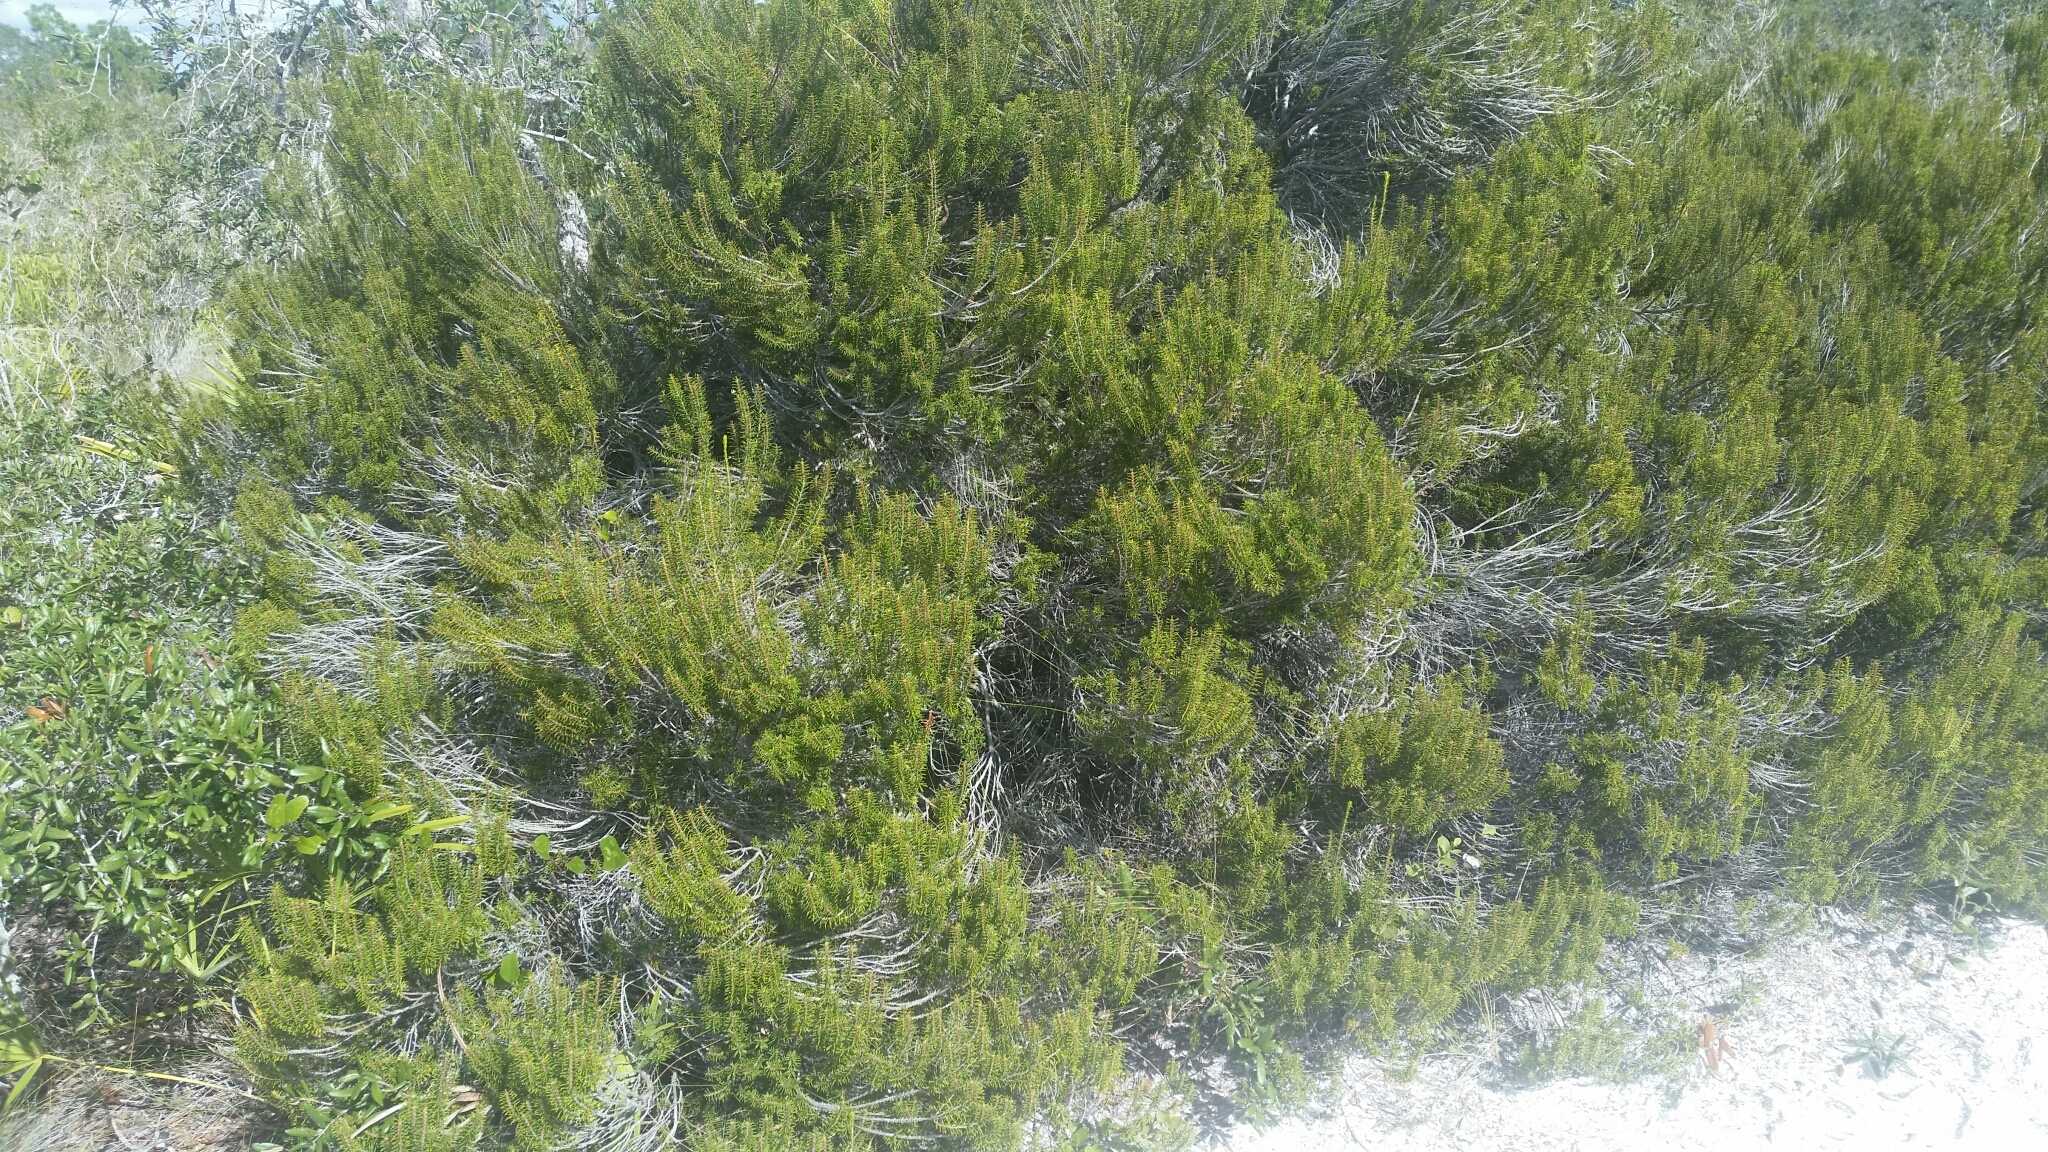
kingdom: Plantae
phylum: Tracheophyta
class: Magnoliopsida
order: Ericales
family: Ericaceae
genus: Ceratiola
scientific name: Ceratiola ericoides
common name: Sandhill-rosemary
